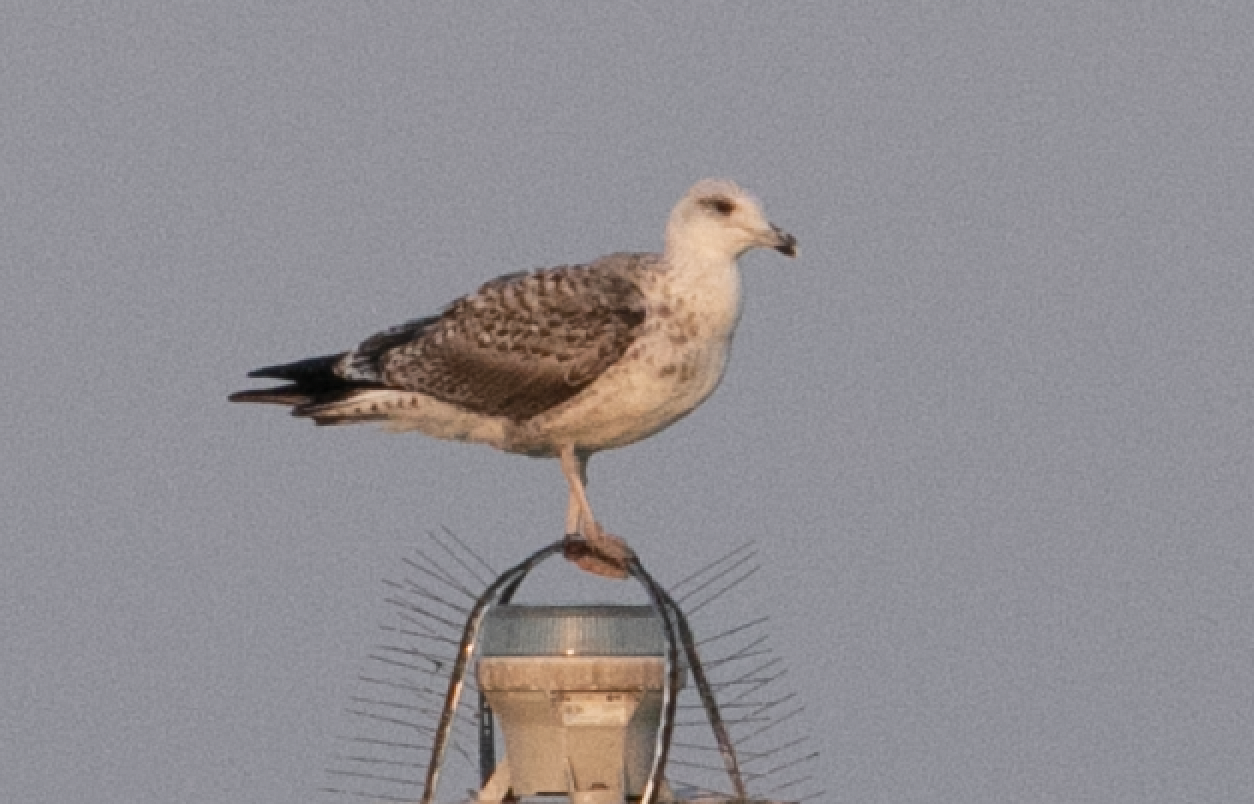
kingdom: Animalia
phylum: Chordata
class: Aves
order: Charadriiformes
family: Laridae
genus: Larus
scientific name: Larus michahellis
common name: Yellow-legged gull
